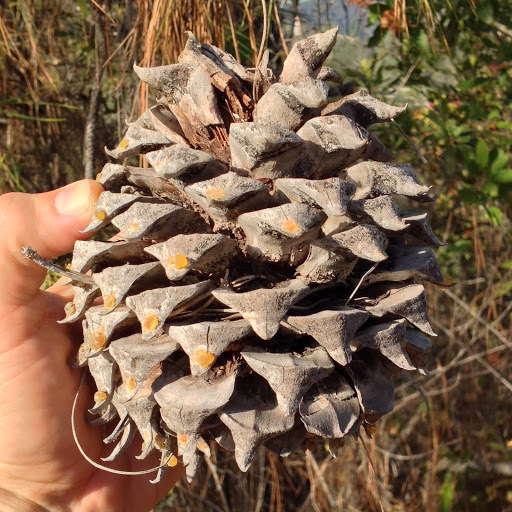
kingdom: Plantae
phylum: Tracheophyta
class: Pinopsida
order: Pinales
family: Pinaceae
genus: Pinus
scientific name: Pinus sabiniana
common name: Bull pine
